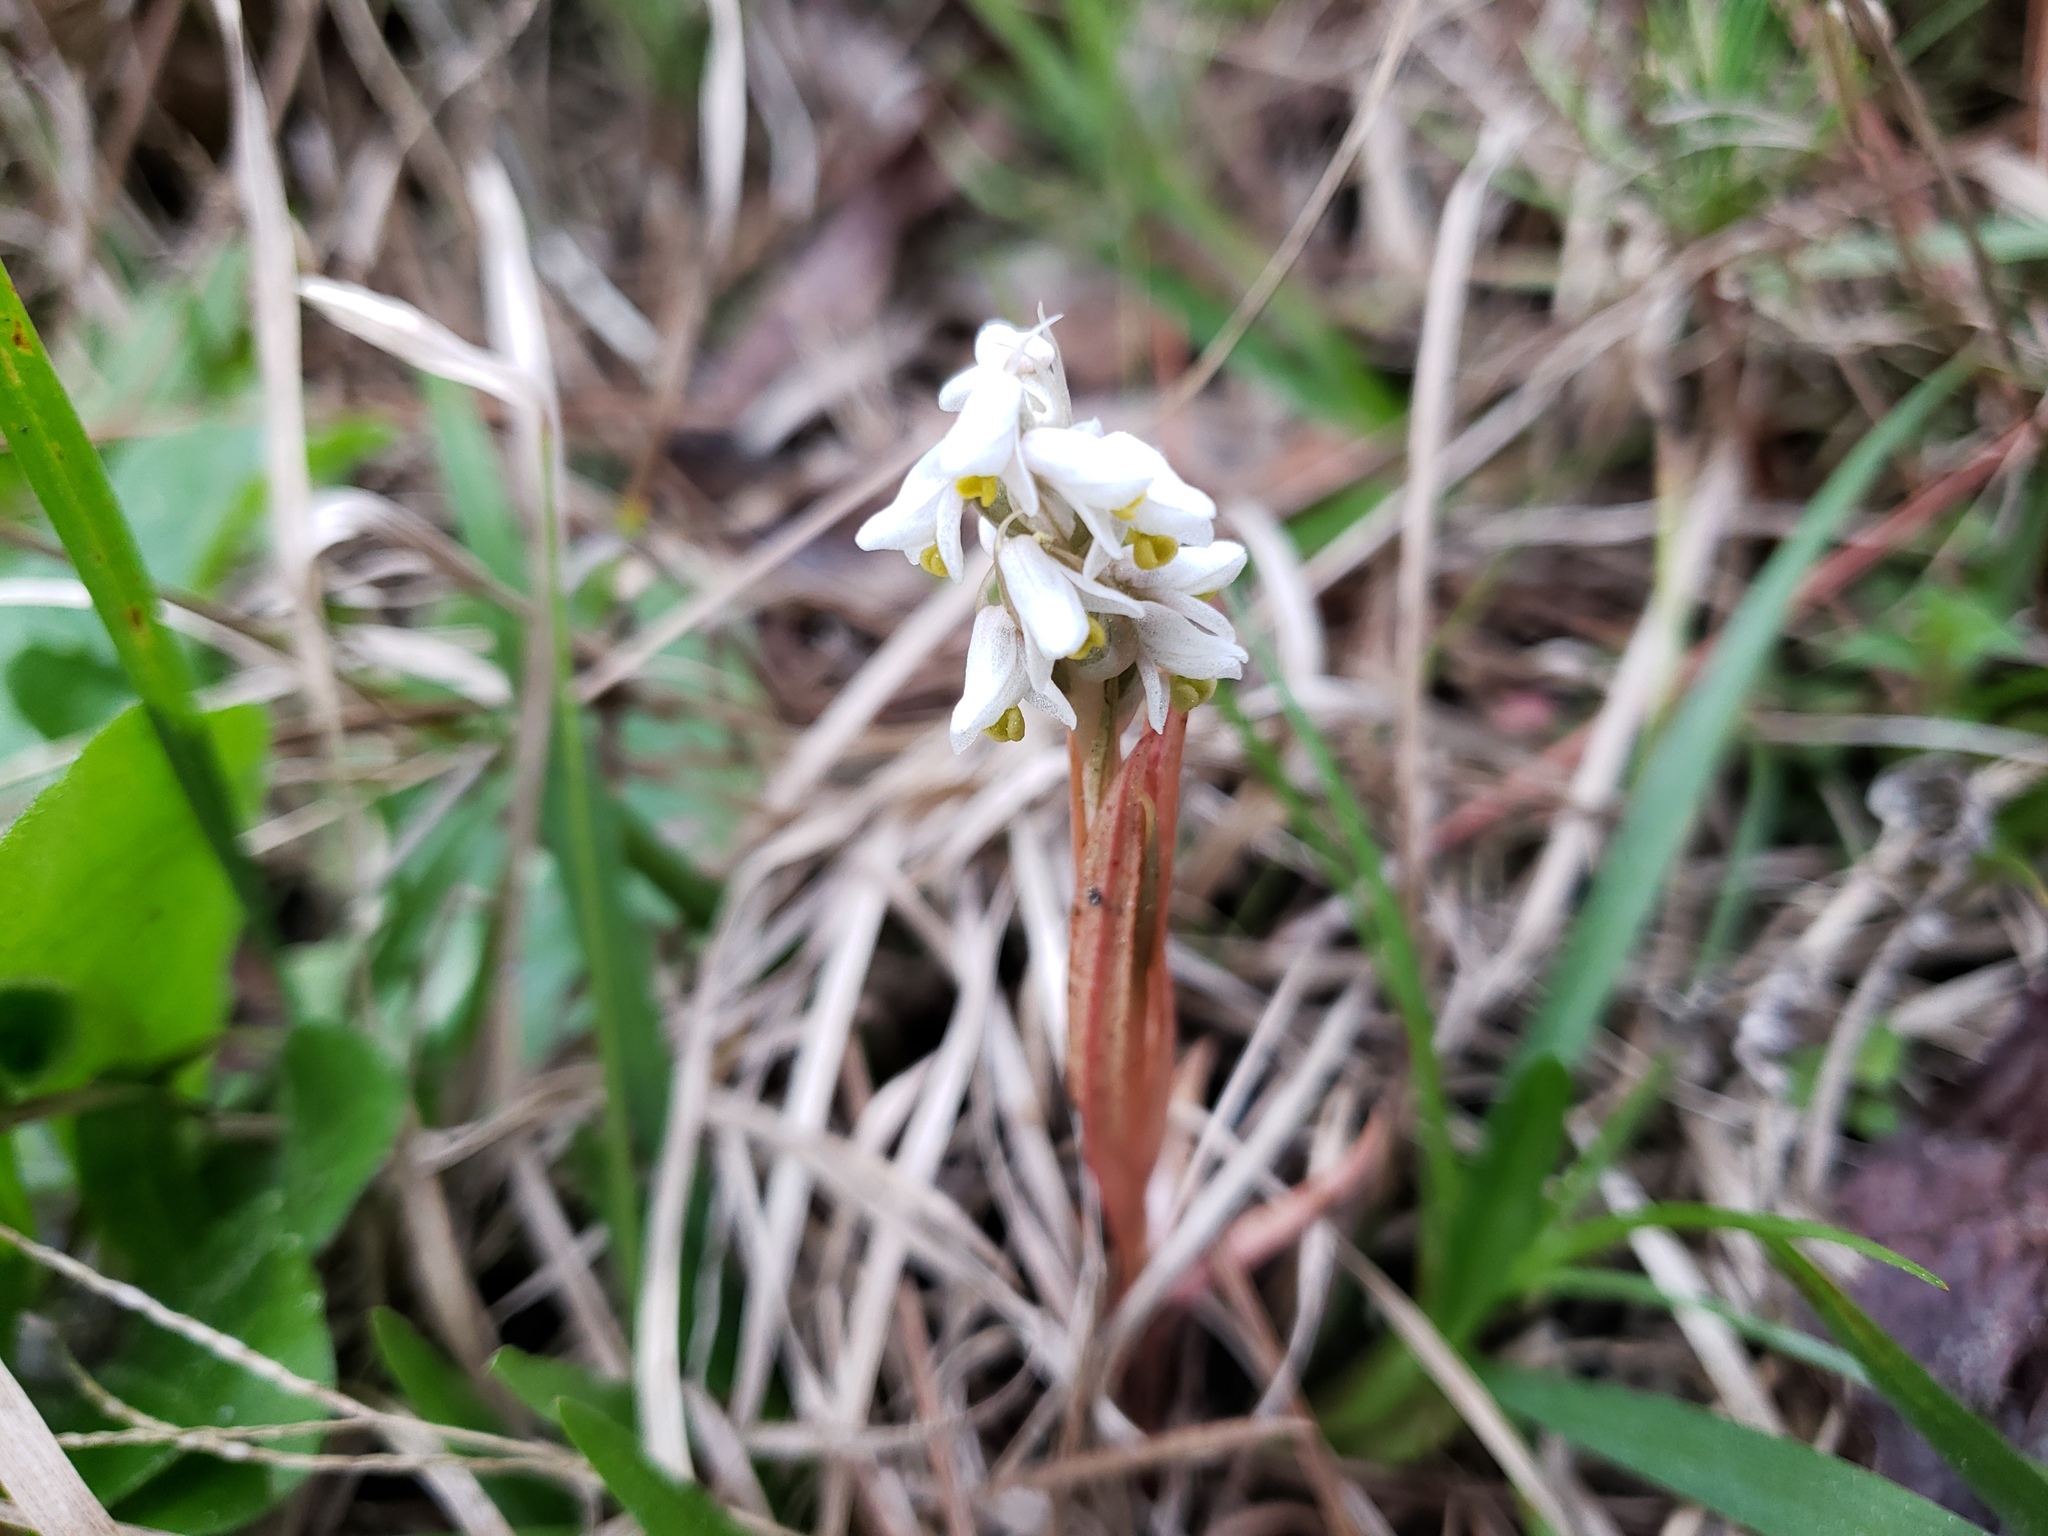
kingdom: Plantae
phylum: Tracheophyta
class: Liliopsida
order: Asparagales
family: Orchidaceae
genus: Zeuxine
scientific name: Zeuxine strateumatica
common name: Soldier's orchid
